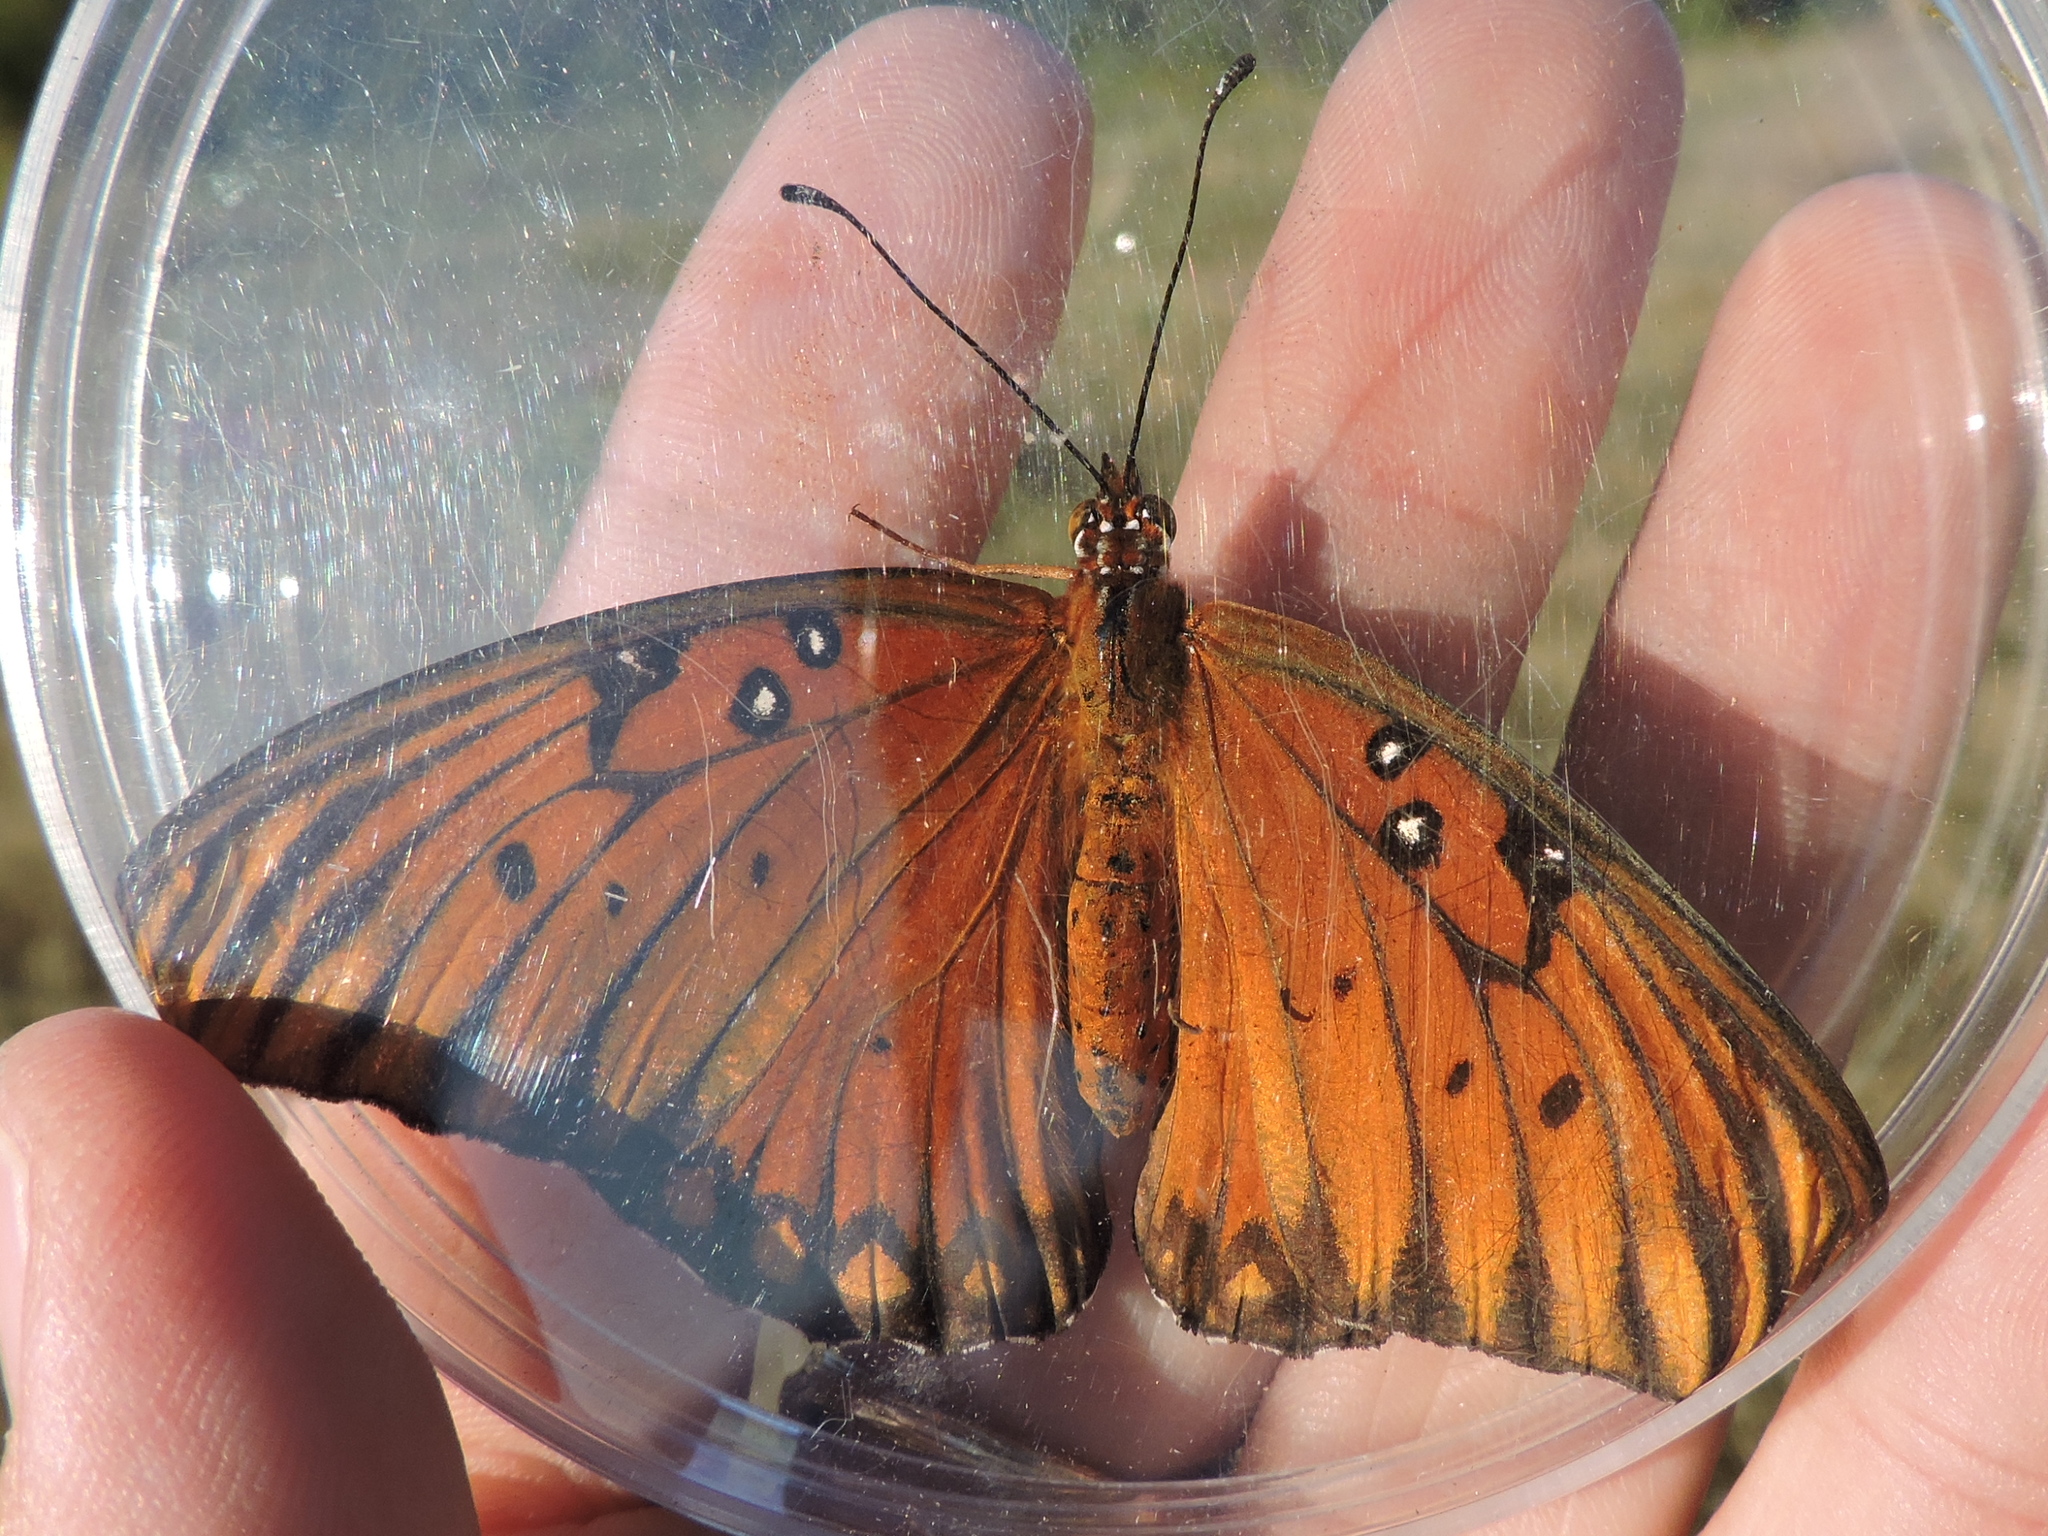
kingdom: Animalia
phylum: Arthropoda
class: Insecta
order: Lepidoptera
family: Nymphalidae
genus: Dione
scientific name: Dione vanillae
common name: Gulf fritillary
